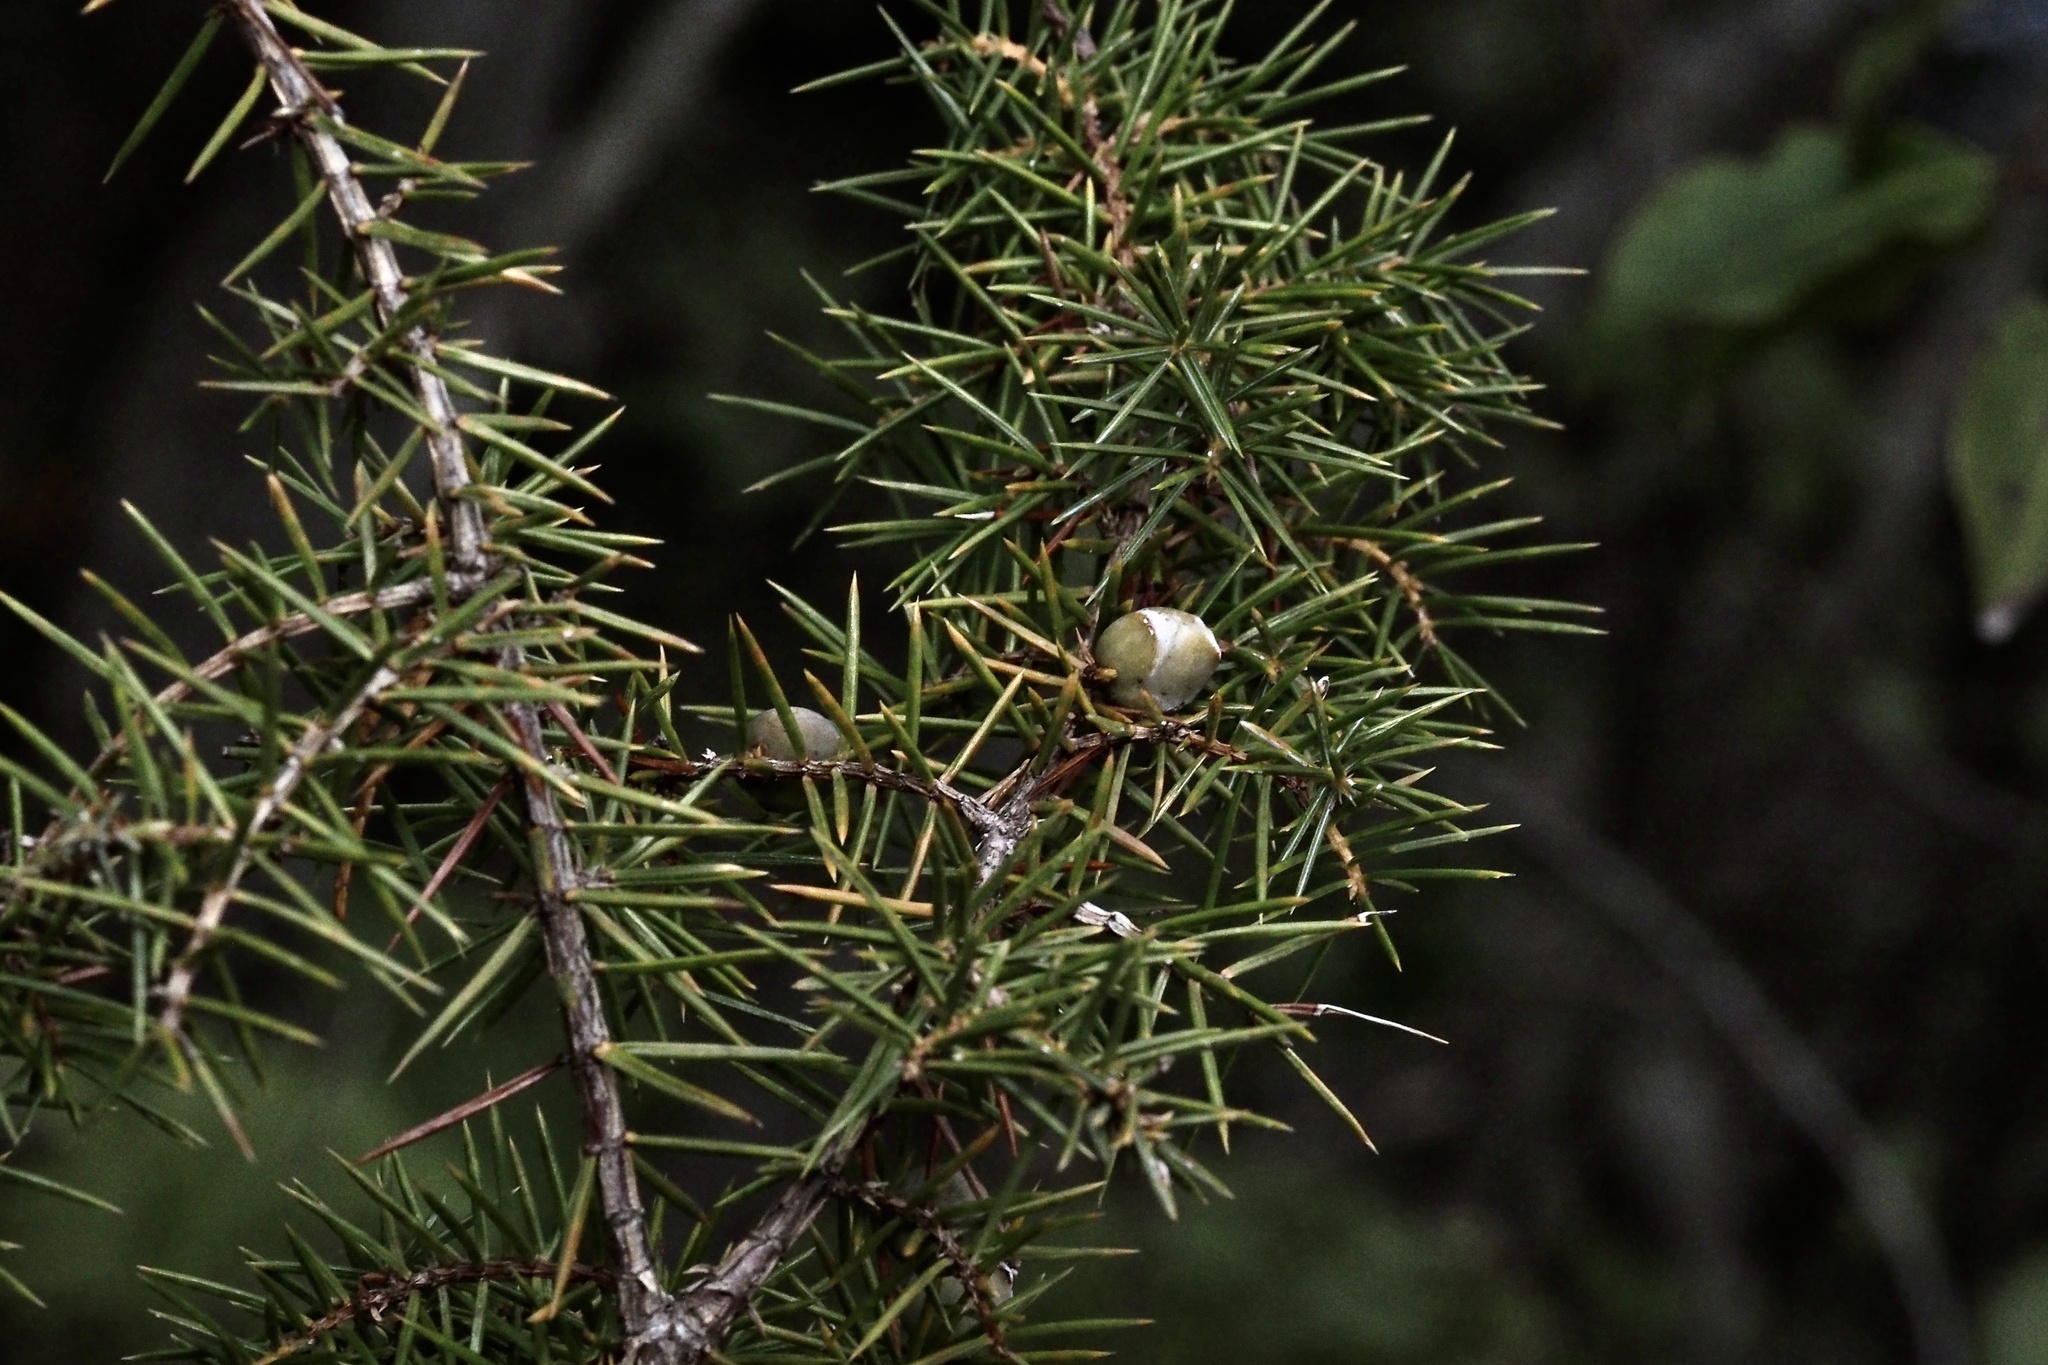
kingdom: Plantae
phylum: Tracheophyta
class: Pinopsida
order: Pinales
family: Cupressaceae
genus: Juniperus
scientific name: Juniperus rigida
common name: Needle juniper
